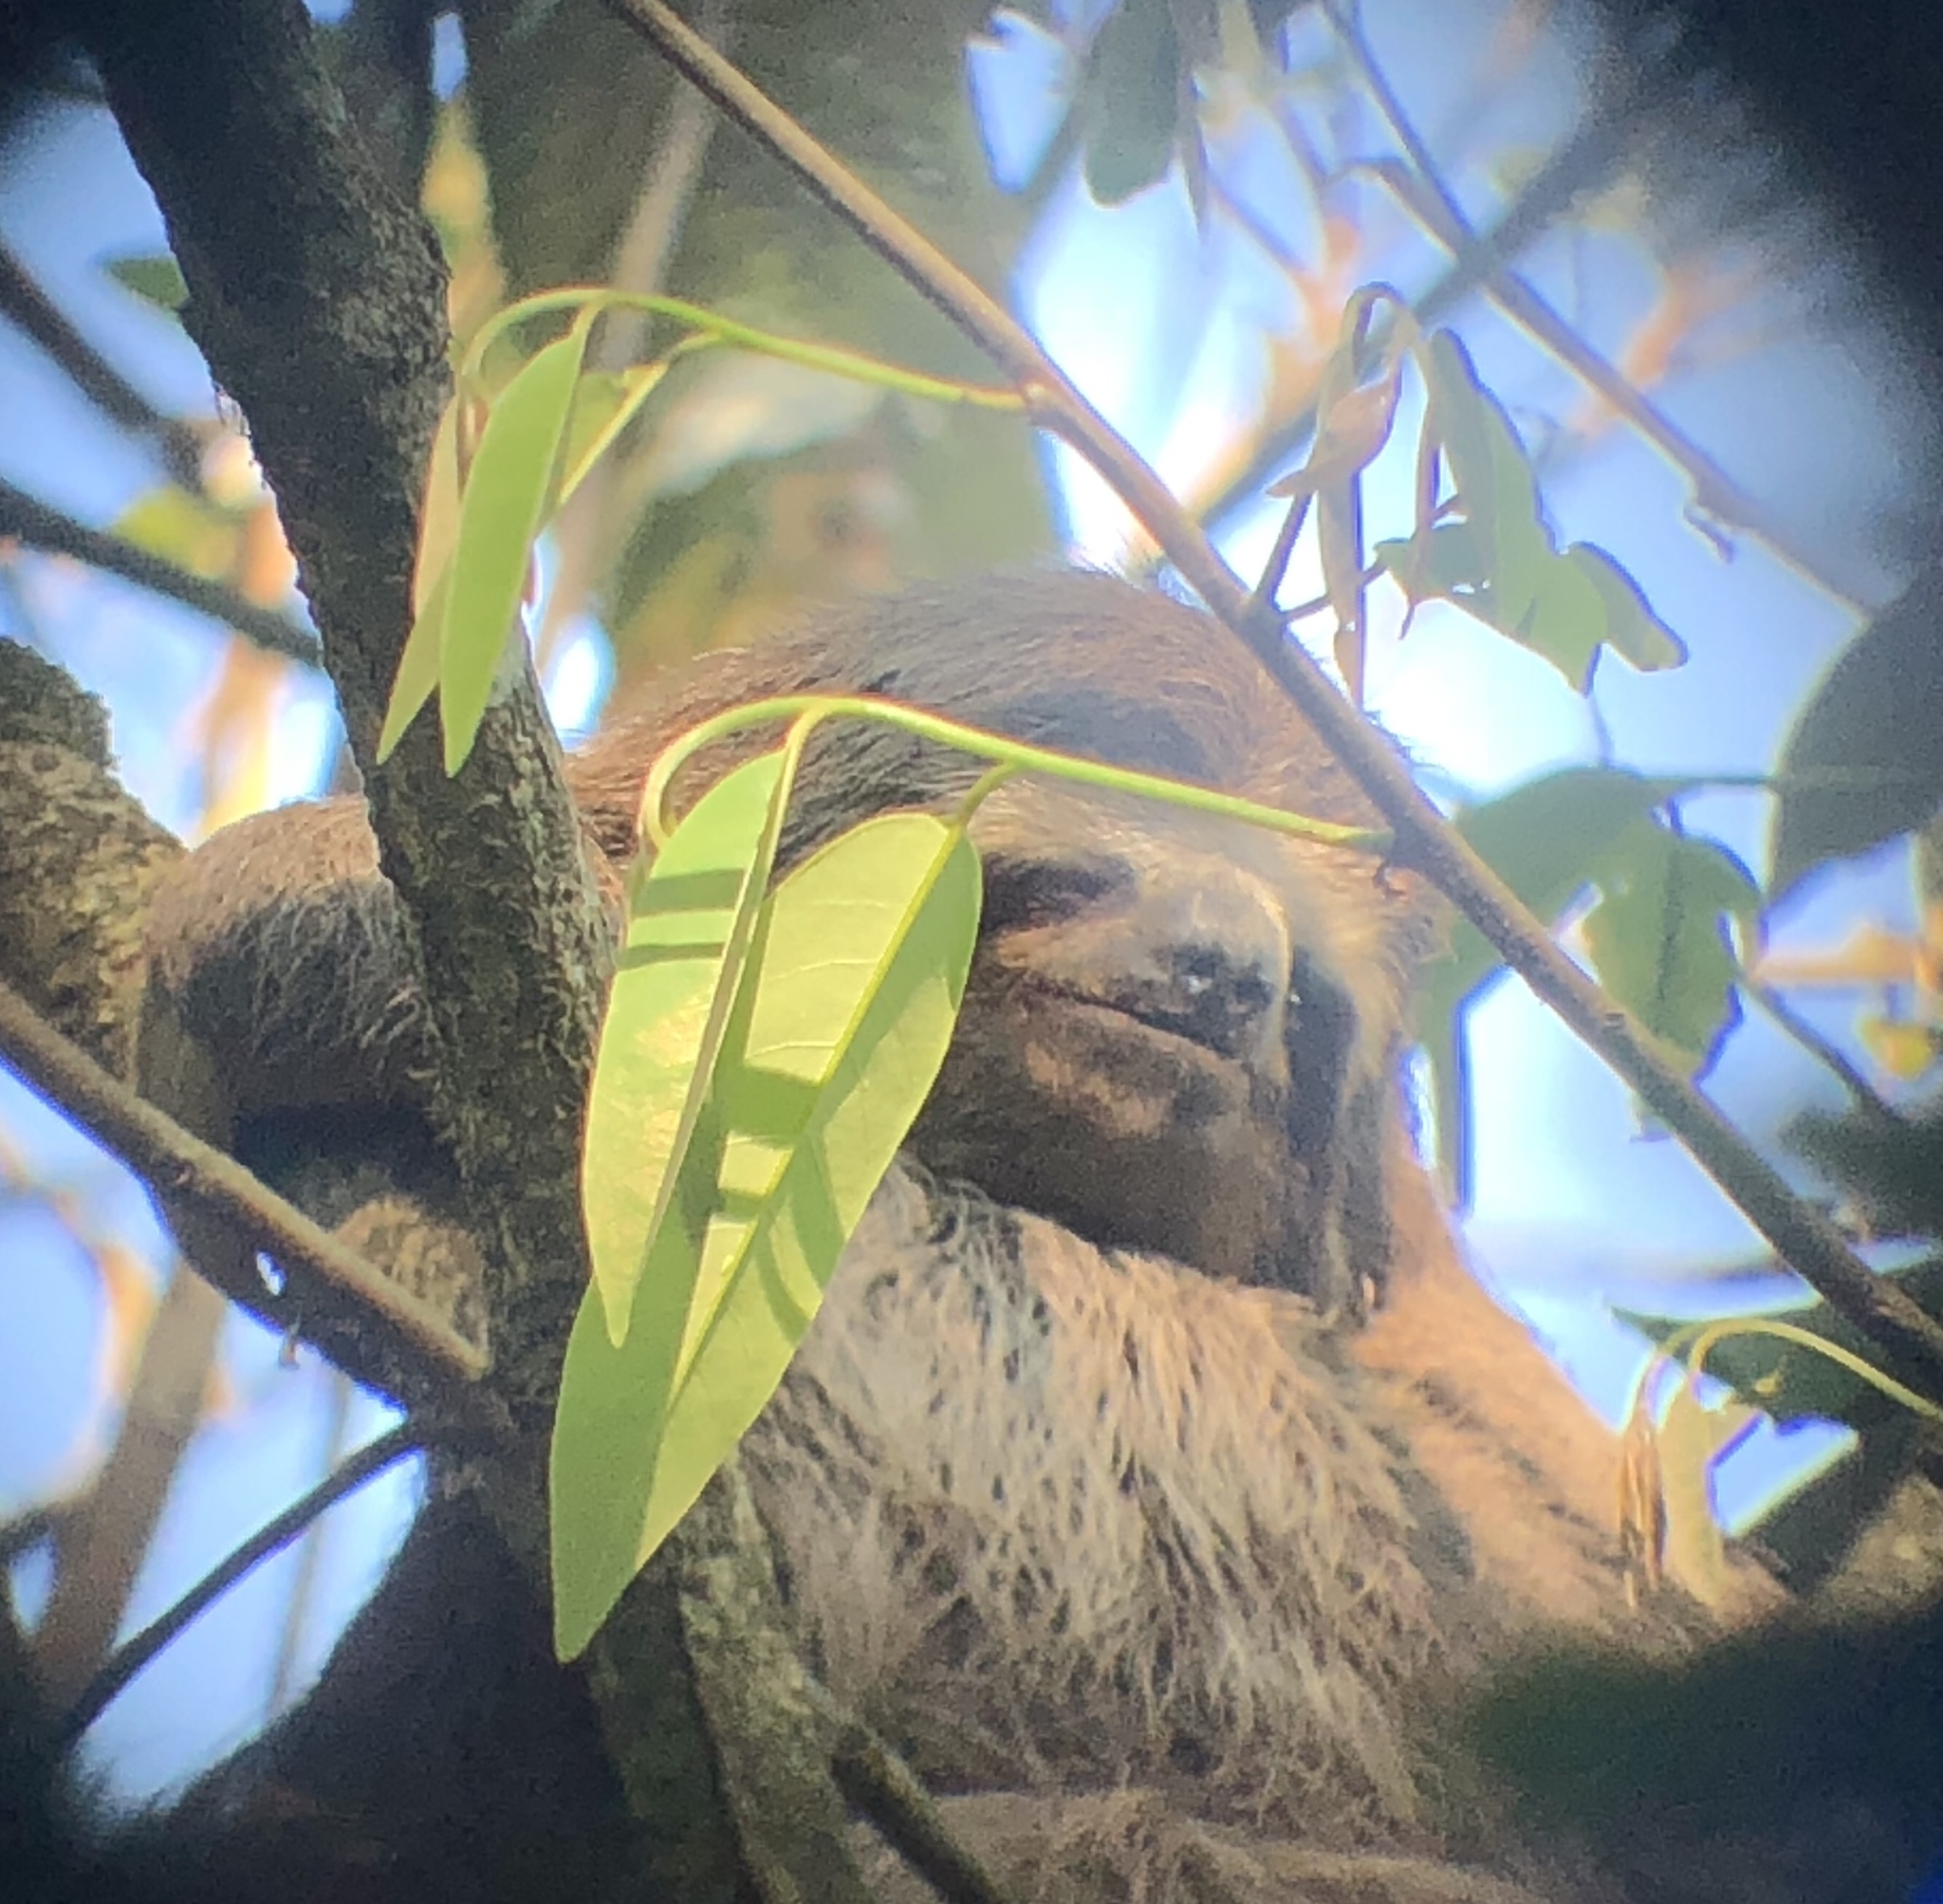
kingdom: Animalia
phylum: Chordata
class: Mammalia
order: Pilosa
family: Bradypodidae
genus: Bradypus
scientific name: Bradypus variegatus
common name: Brown-throated three-toed sloth
